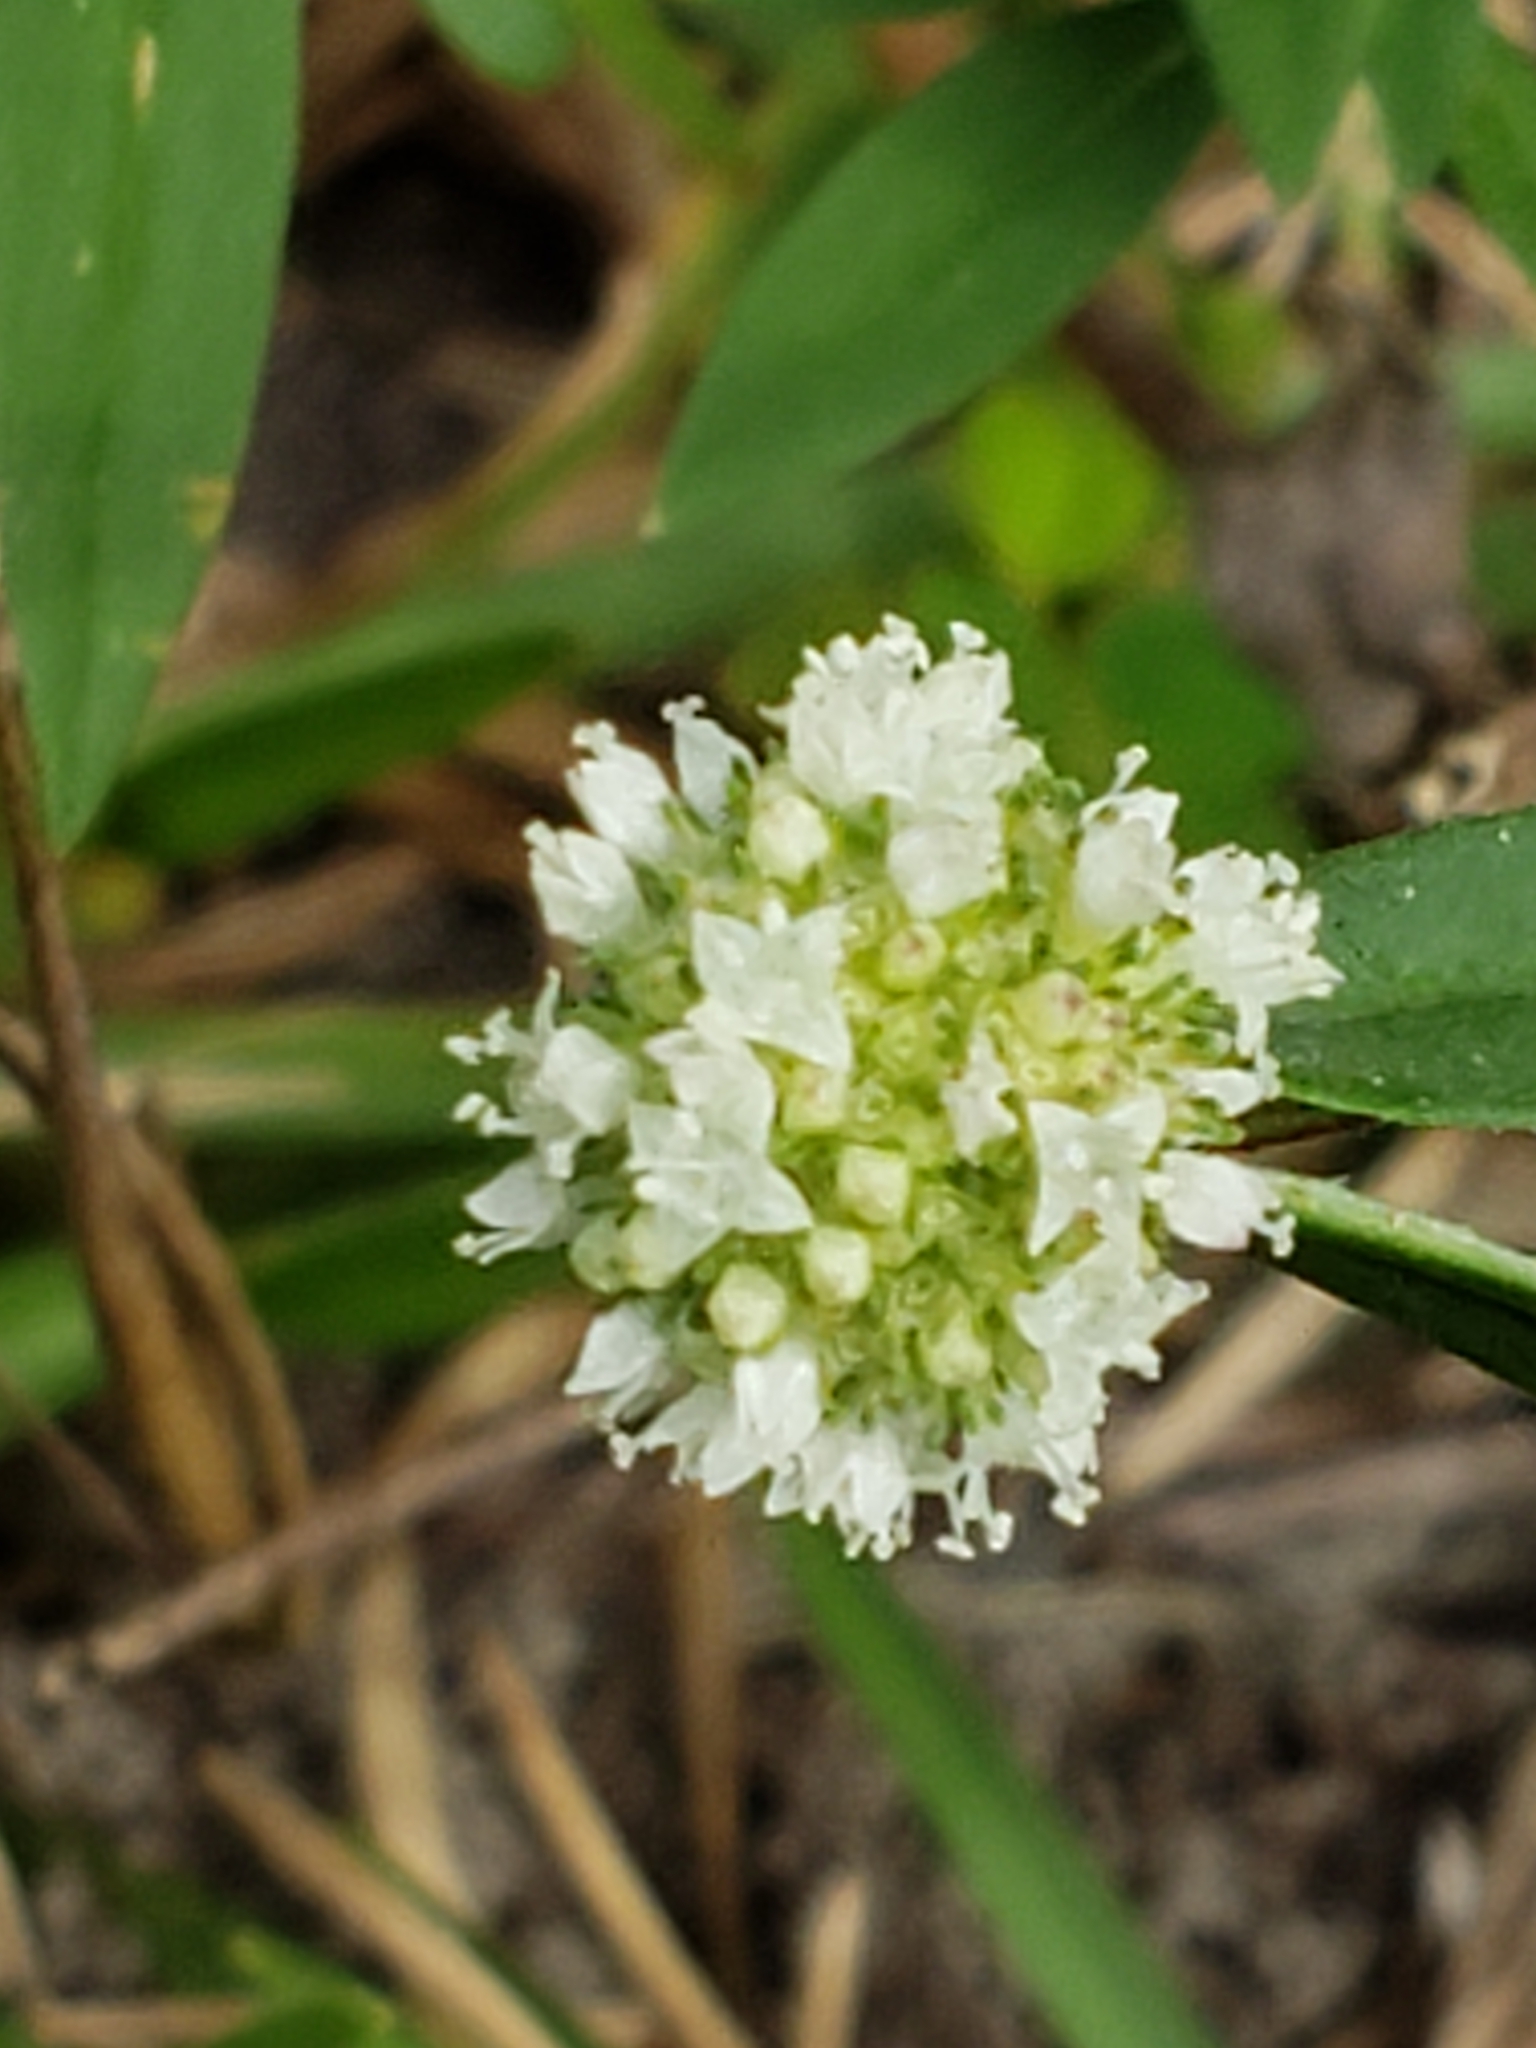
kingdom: Plantae
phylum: Tracheophyta
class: Magnoliopsida
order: Gentianales
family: Rubiaceae
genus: Diacrodon
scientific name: Diacrodon compressus
